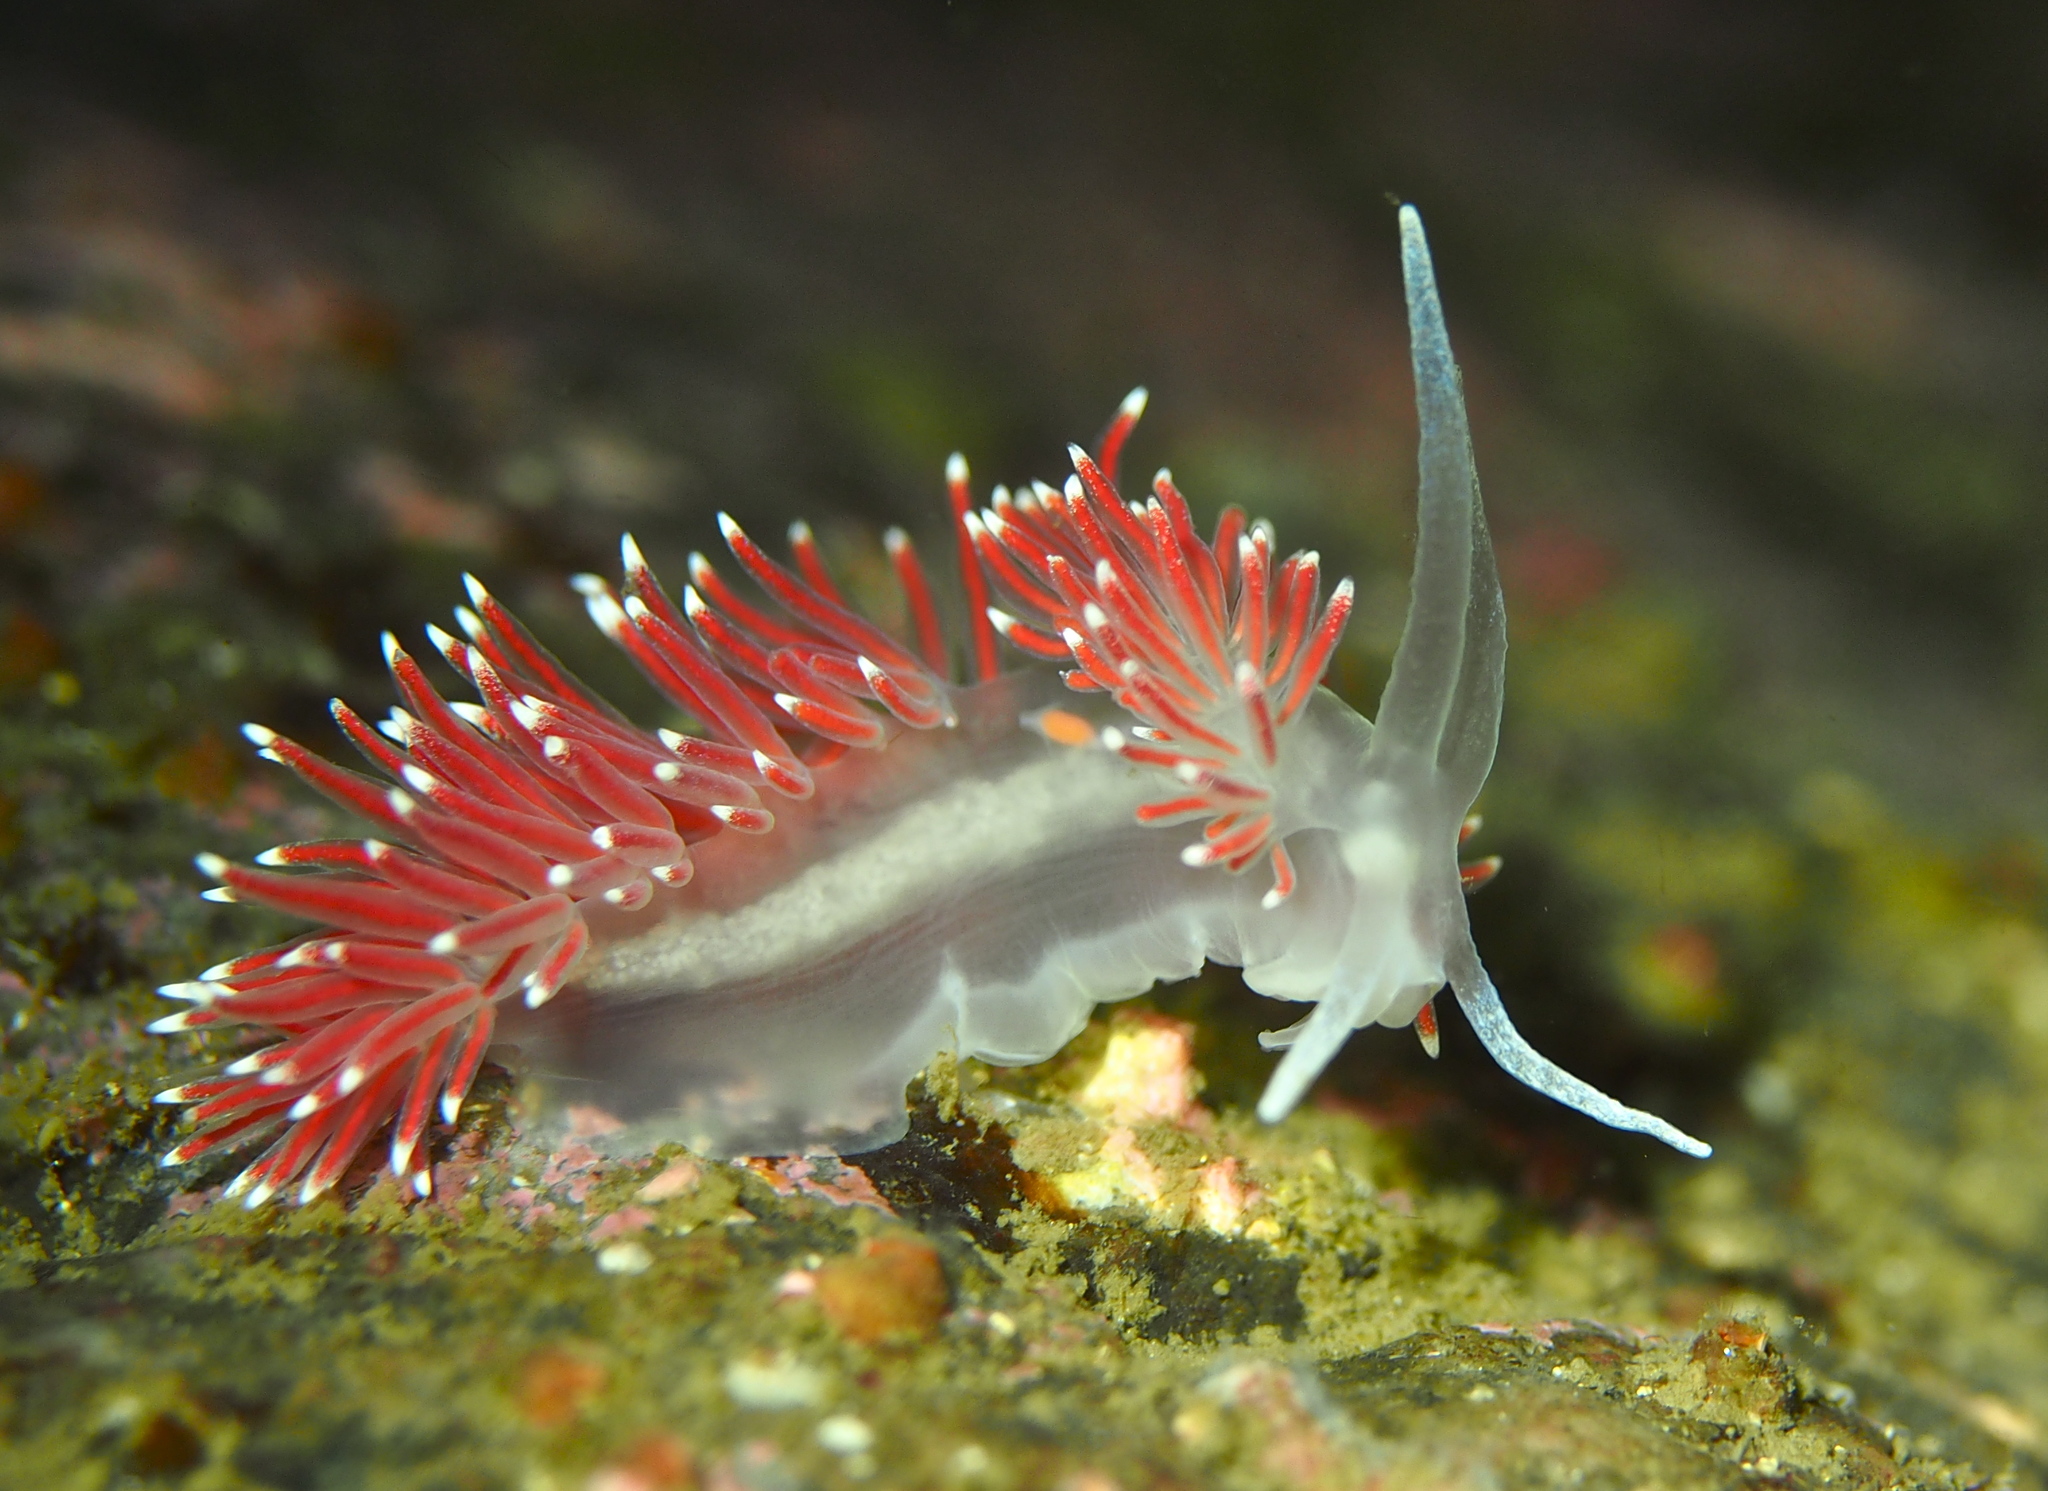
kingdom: Animalia
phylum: Mollusca
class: Gastropoda
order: Nudibranchia
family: Flabellinidae
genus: Carronella
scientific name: Carronella pellucida
